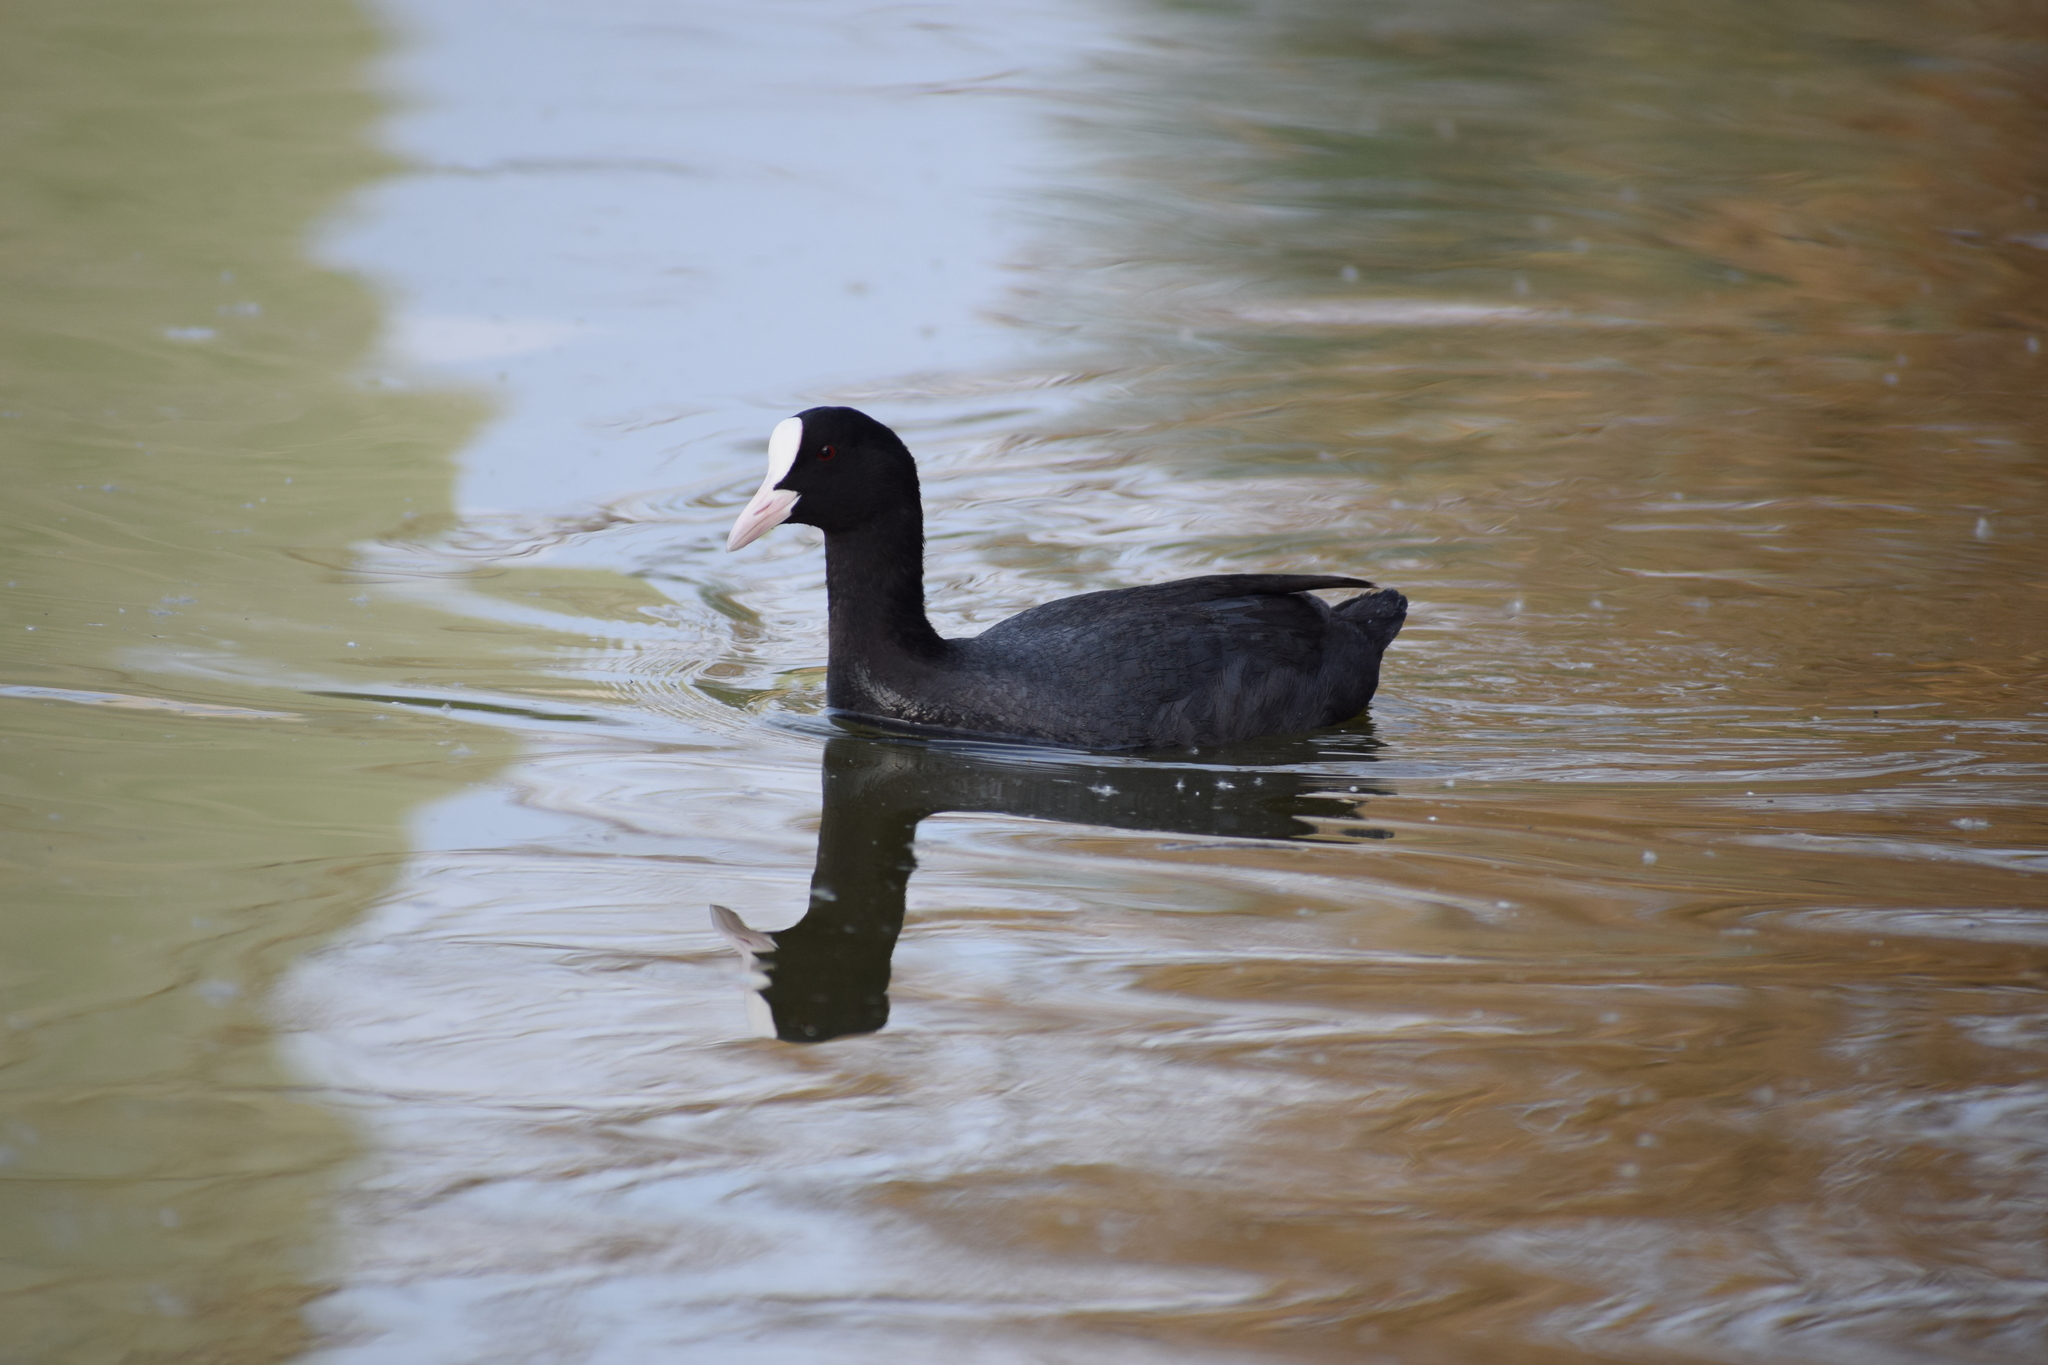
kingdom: Animalia
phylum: Chordata
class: Aves
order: Gruiformes
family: Rallidae
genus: Fulica
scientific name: Fulica atra
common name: Eurasian coot
